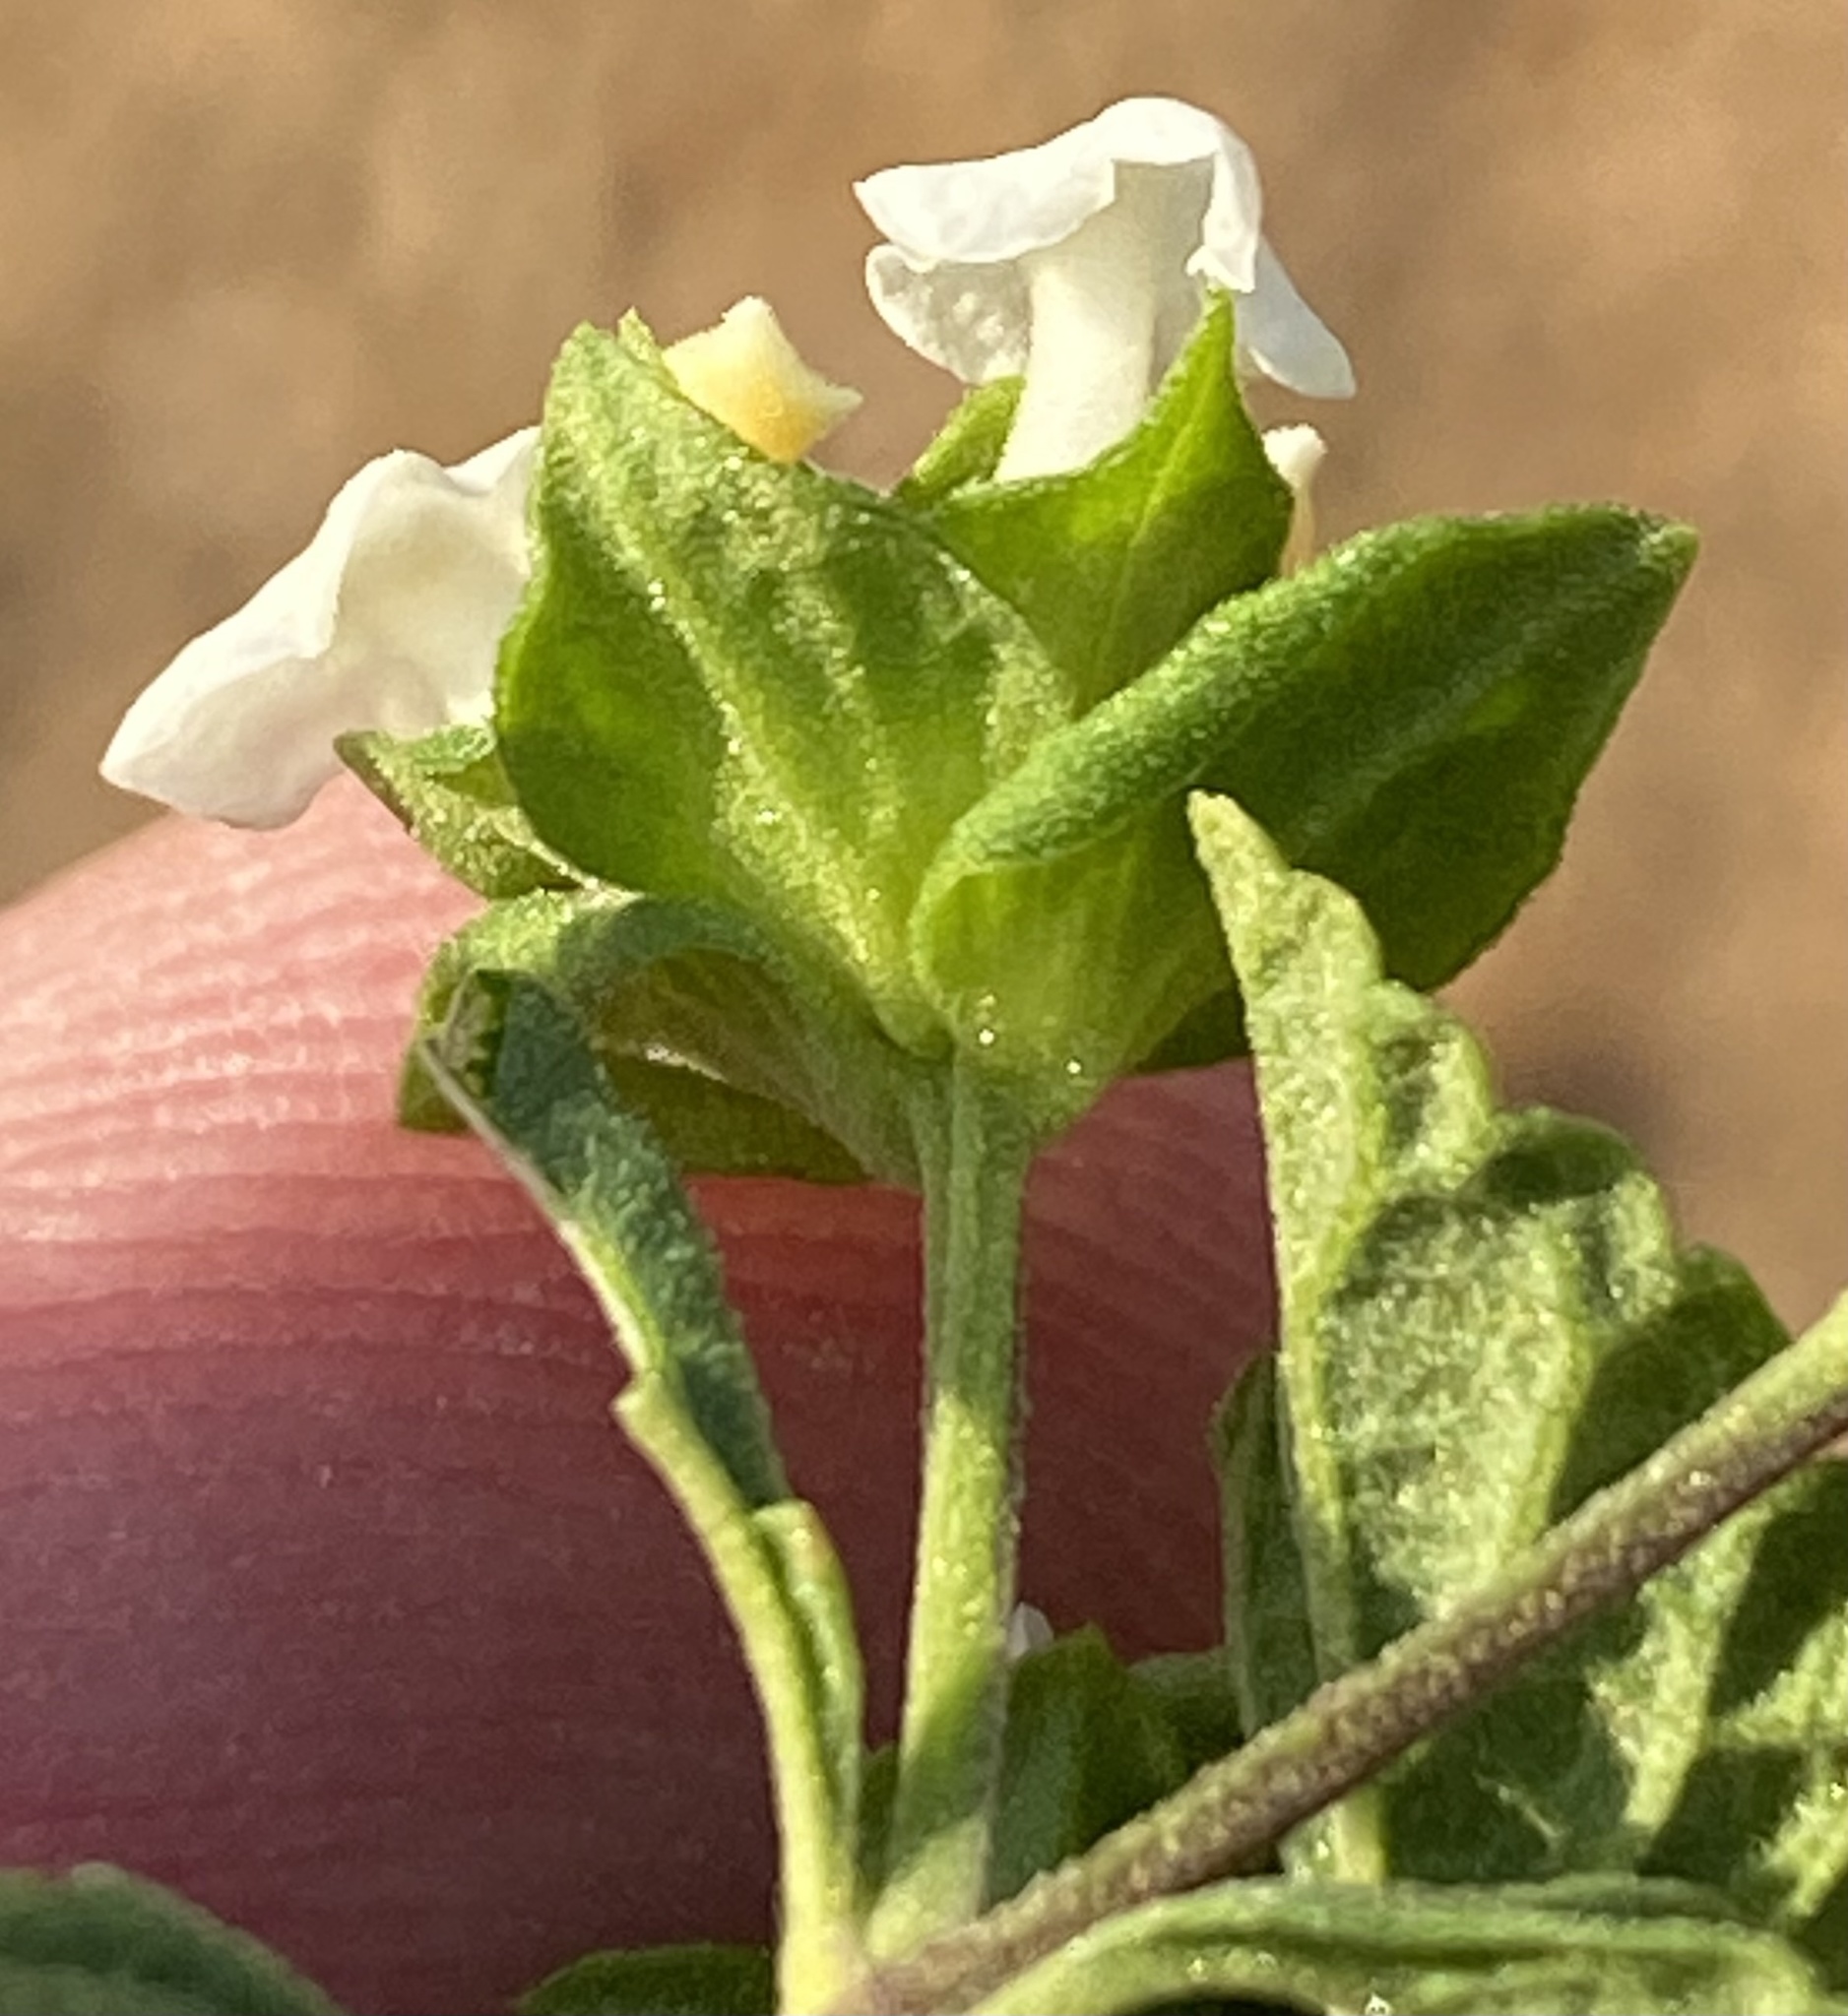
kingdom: Plantae
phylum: Tracheophyta
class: Magnoliopsida
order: Lamiales
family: Verbenaceae
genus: Lantana
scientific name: Lantana dinteri
